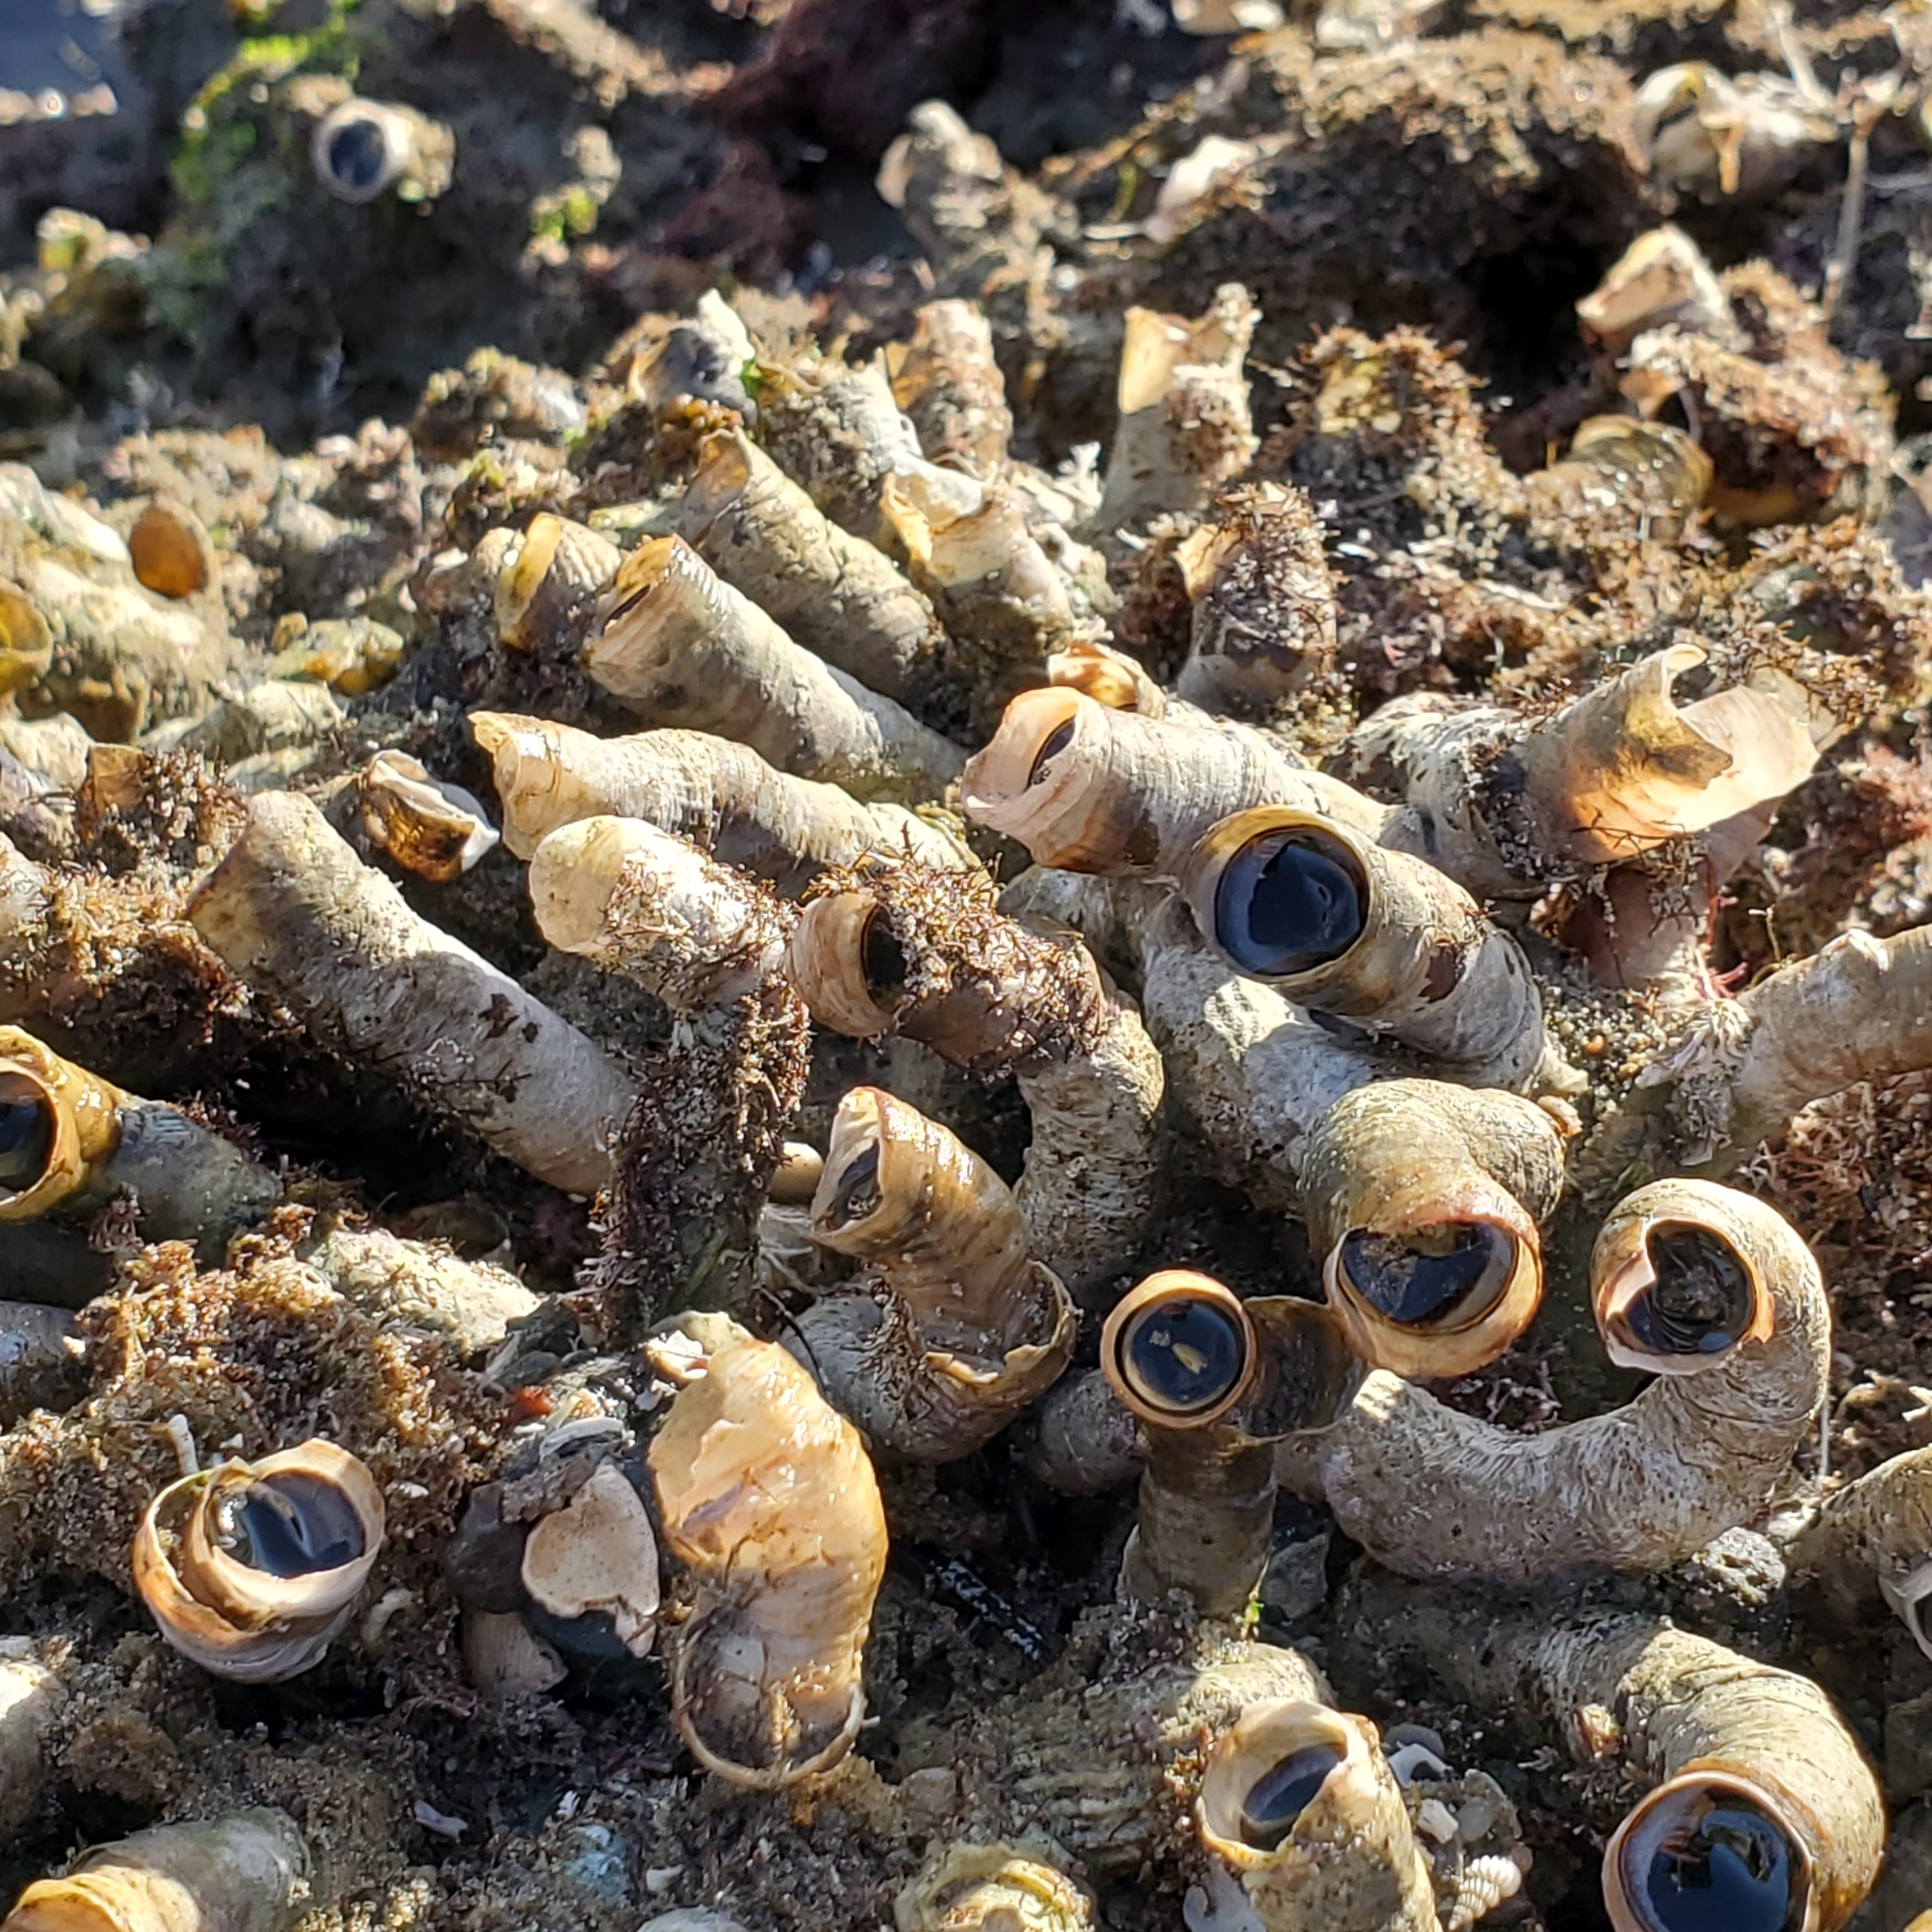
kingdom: Animalia
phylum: Mollusca
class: Gastropoda
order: Littorinimorpha
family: Vermetidae
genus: Thylacodes
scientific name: Thylacodes squamigerus
